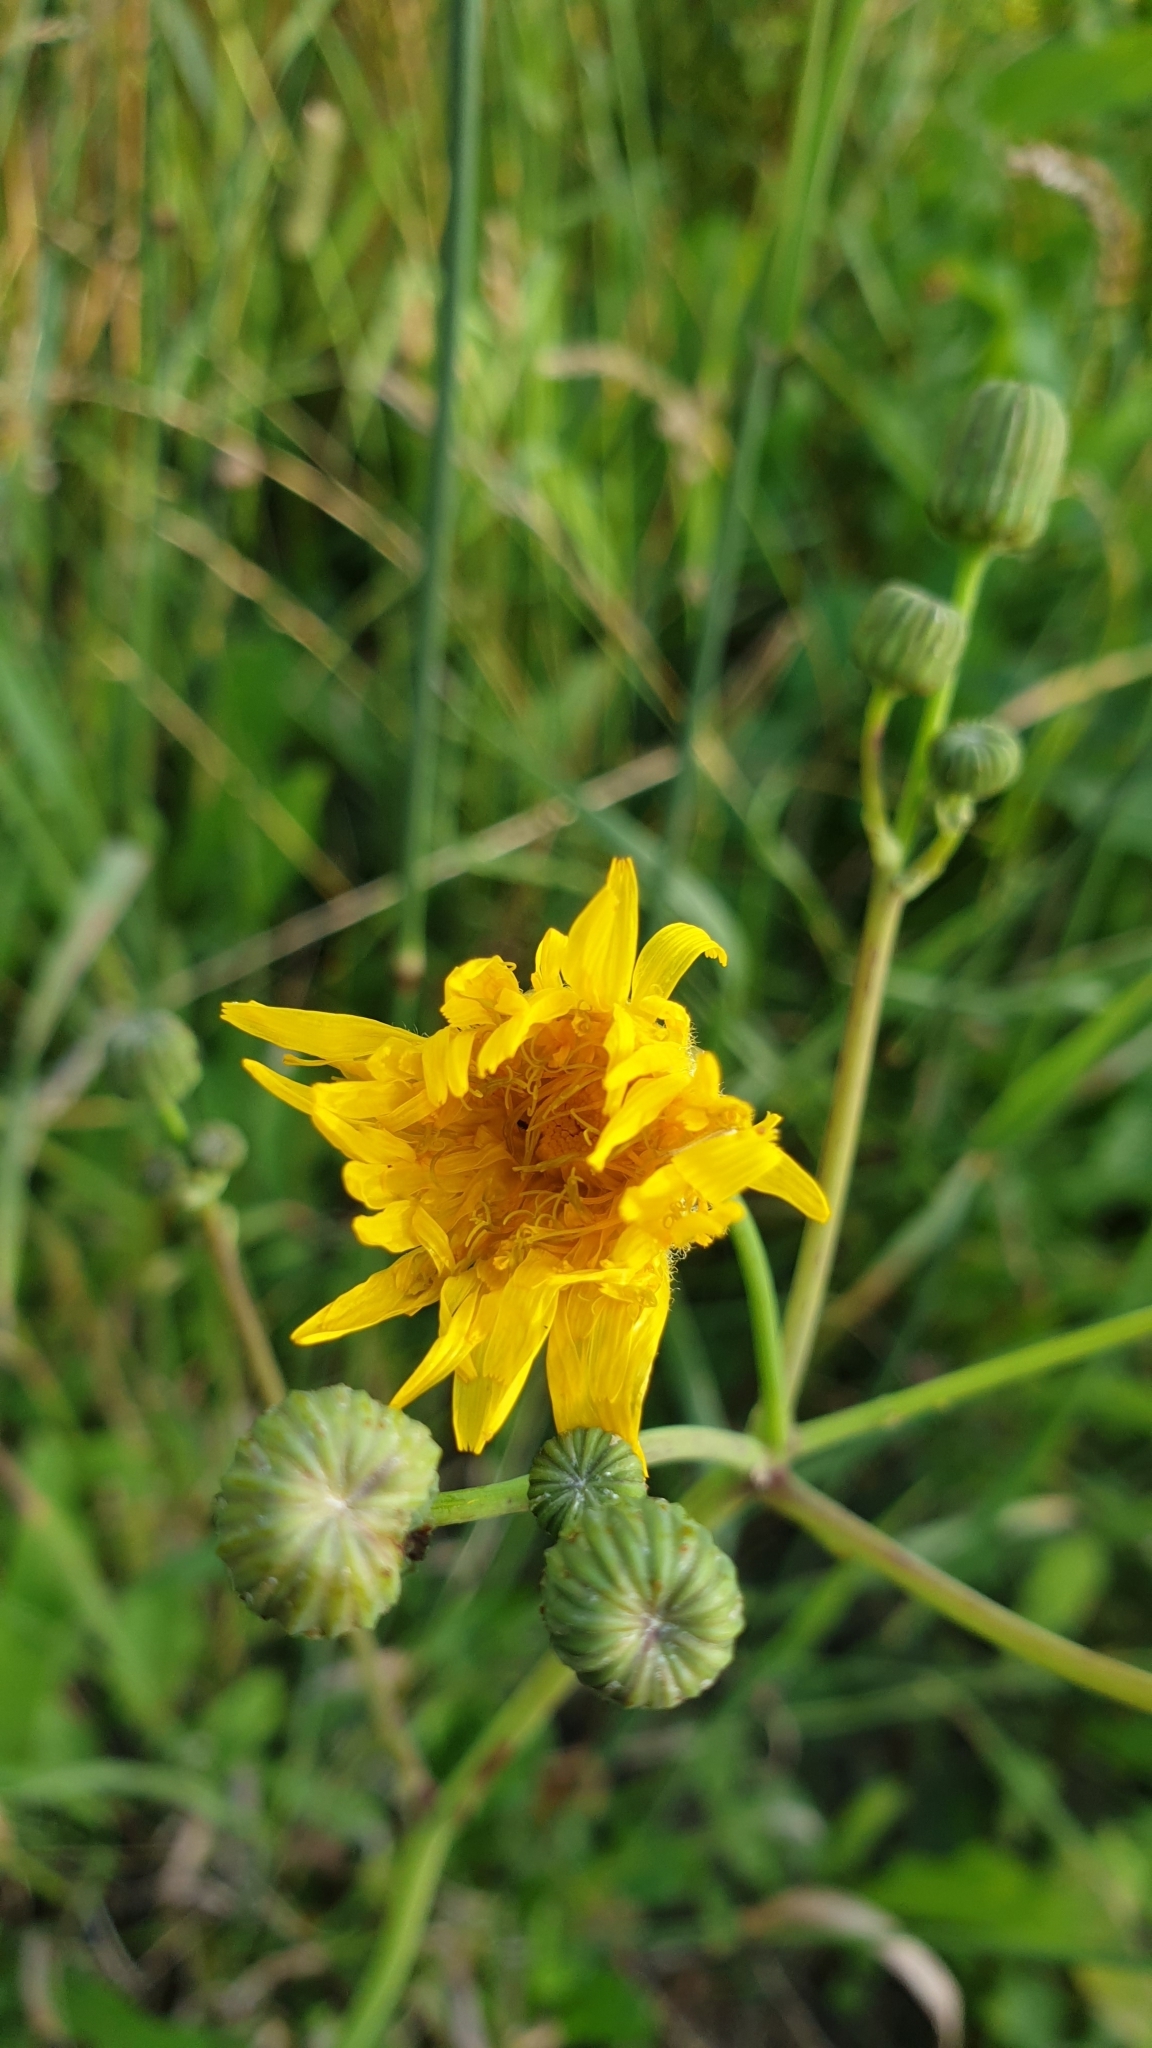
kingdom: Plantae
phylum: Tracheophyta
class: Magnoliopsida
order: Asterales
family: Asteraceae
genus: Sonchus
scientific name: Sonchus arvensis
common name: Perennial sow-thistle
